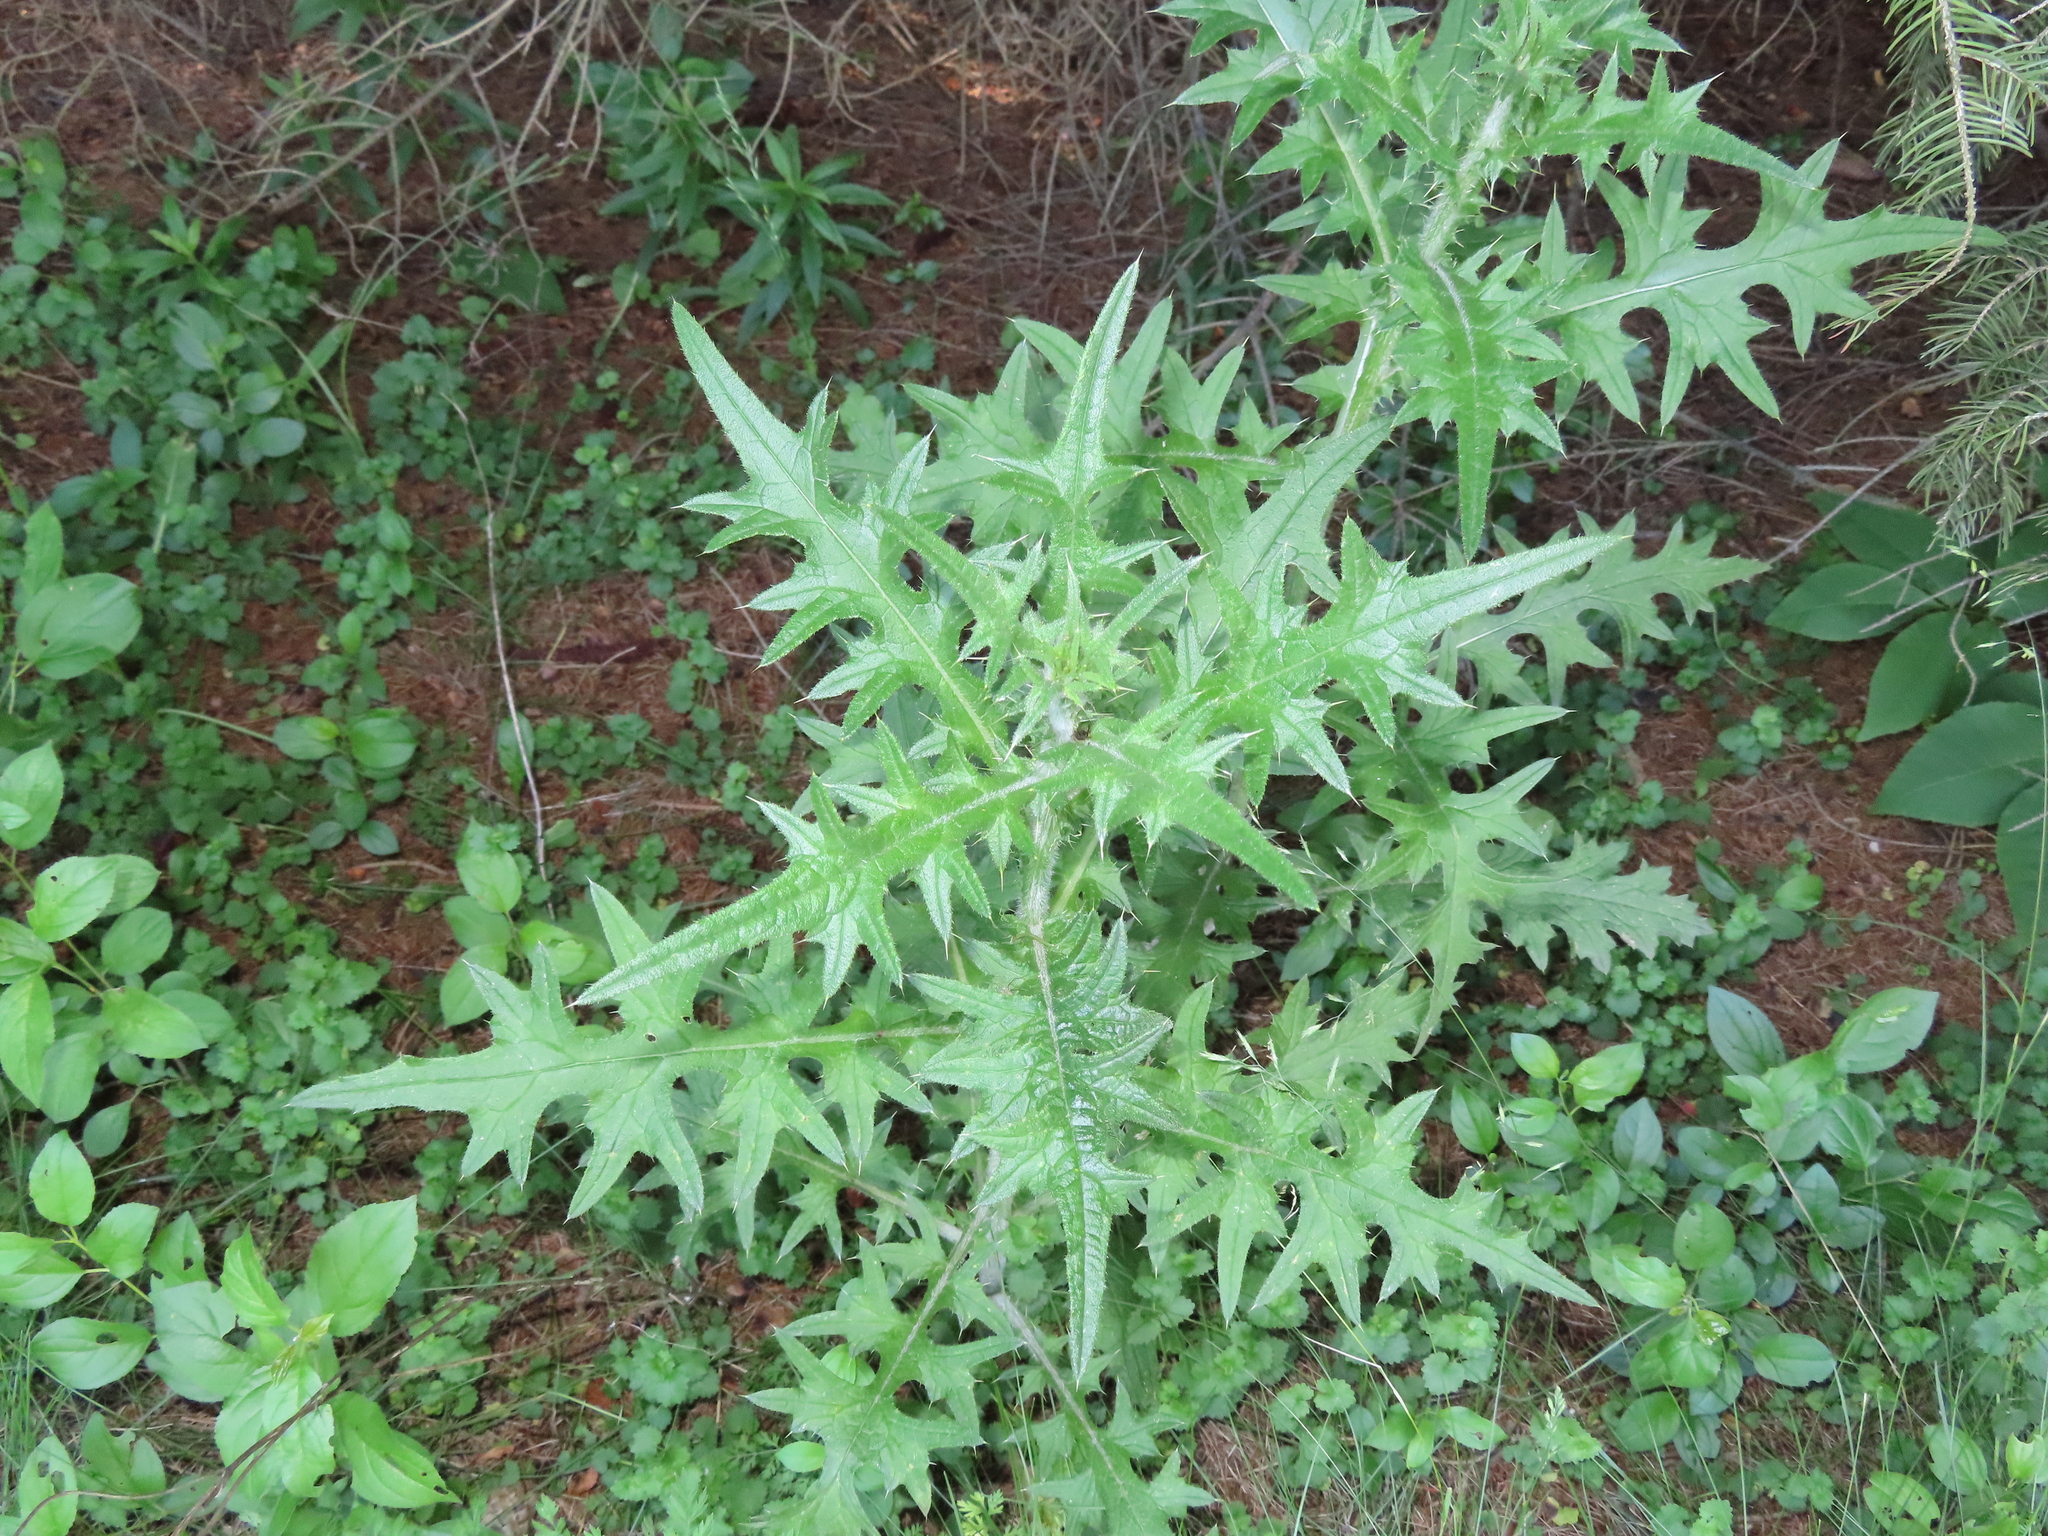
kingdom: Plantae
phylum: Tracheophyta
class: Magnoliopsida
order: Asterales
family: Asteraceae
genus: Cirsium
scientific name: Cirsium vulgare
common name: Bull thistle
